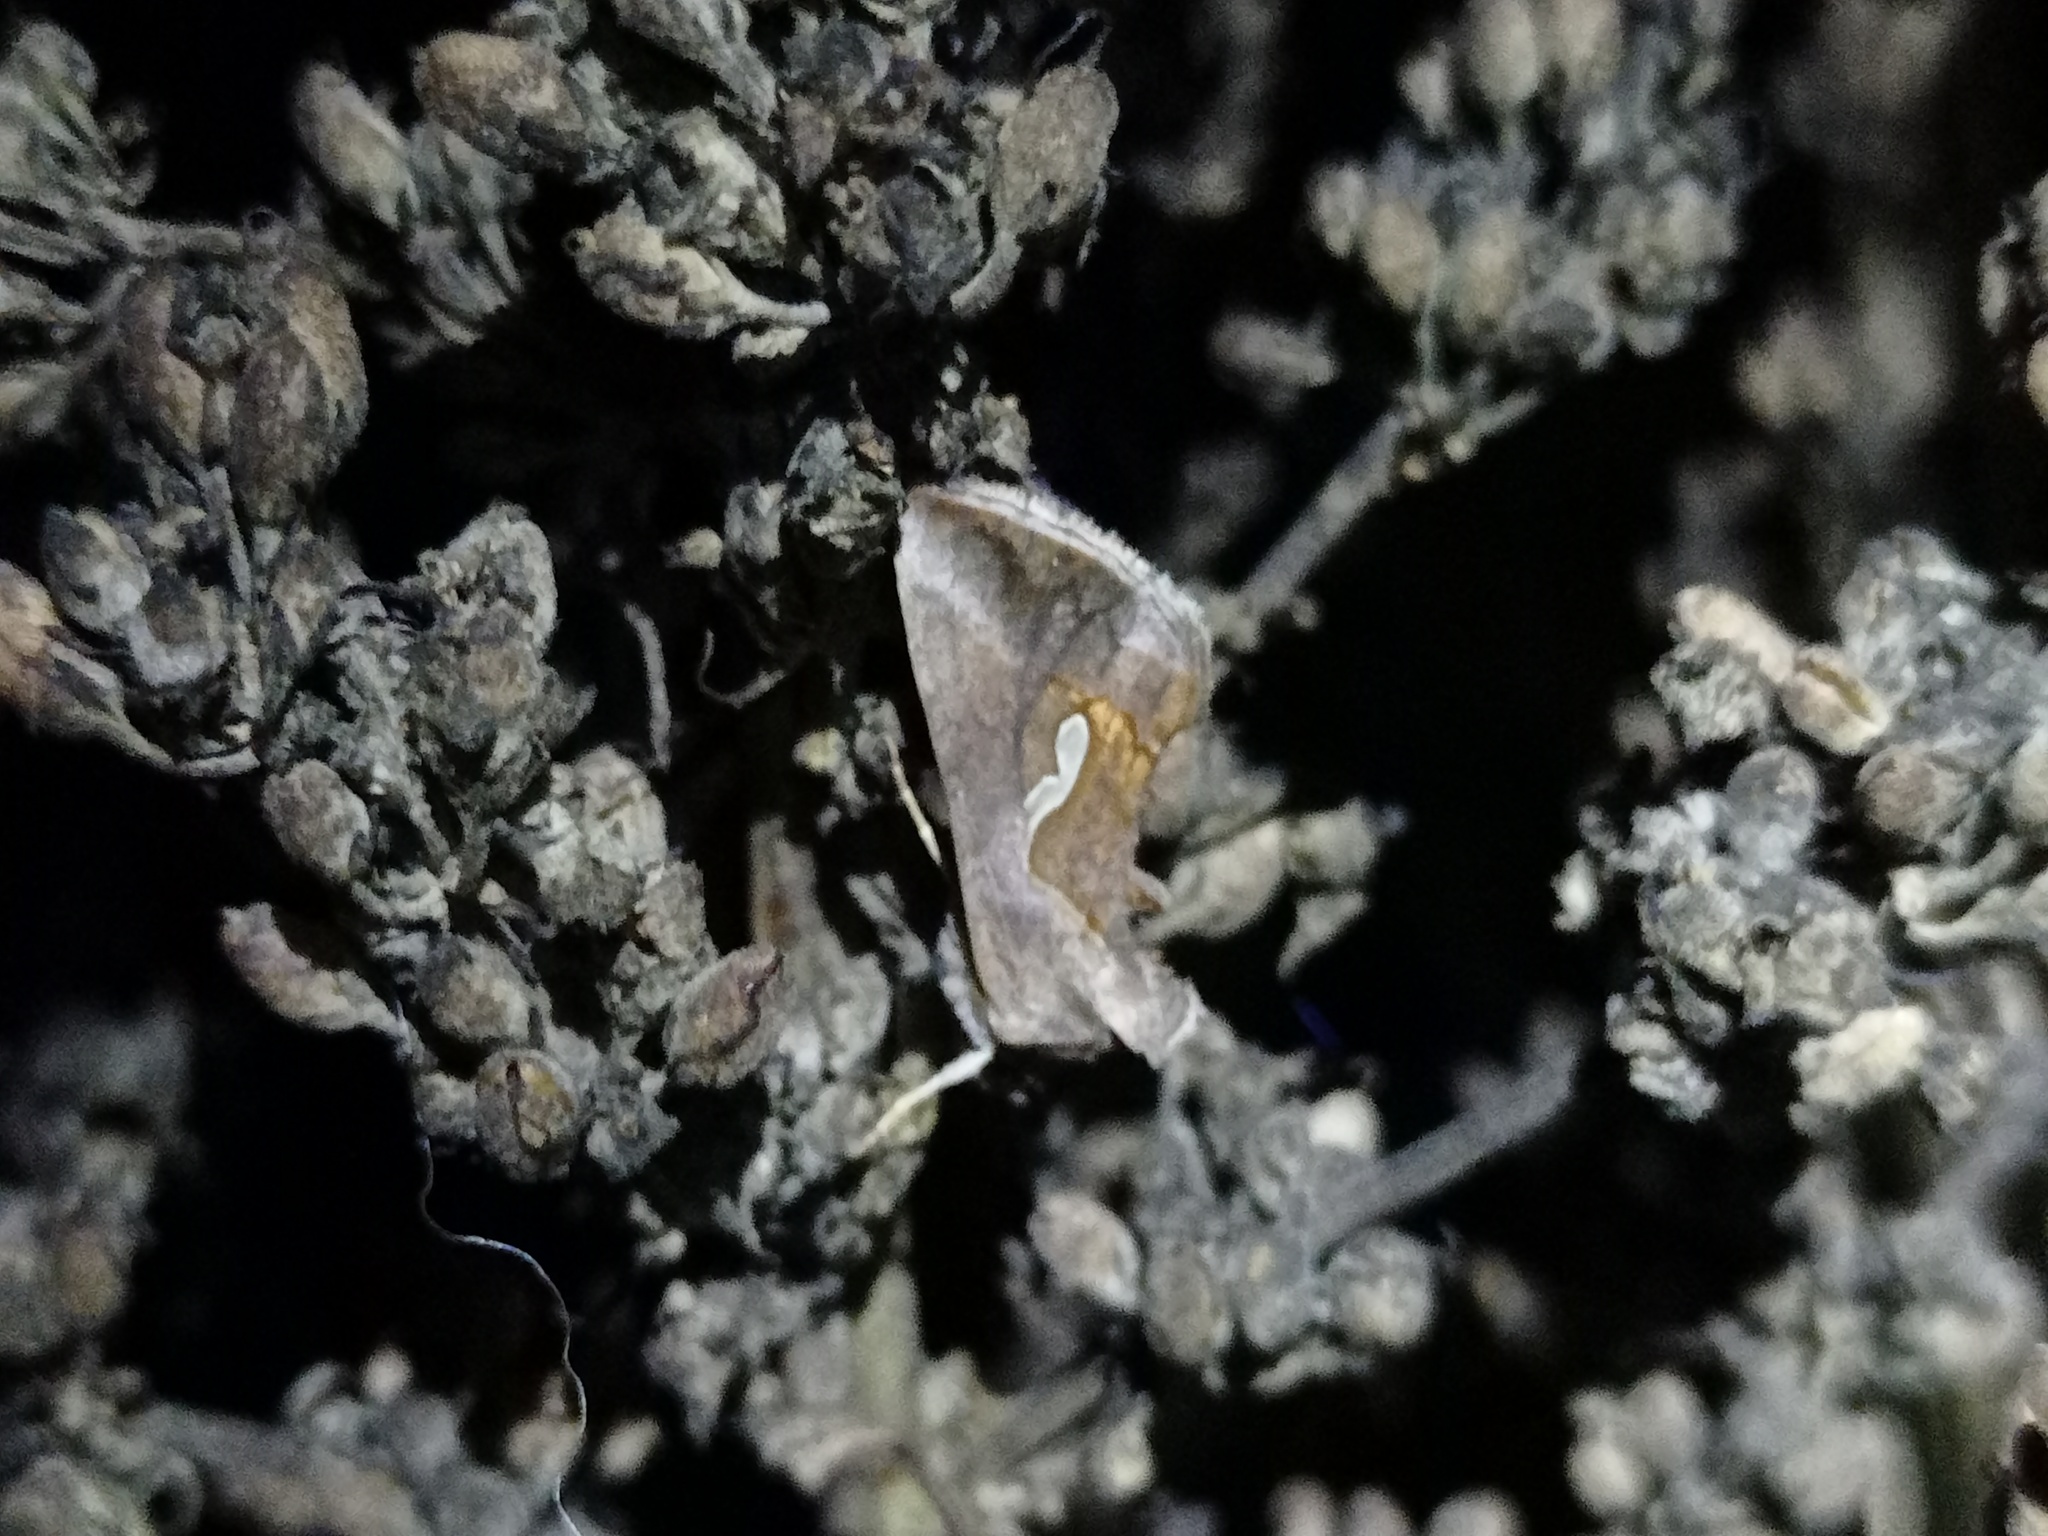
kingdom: Animalia
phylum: Arthropoda
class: Insecta
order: Lepidoptera
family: Noctuidae
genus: Macdunnoughia
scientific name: Macdunnoughia confusa
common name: Dewick's plusia
